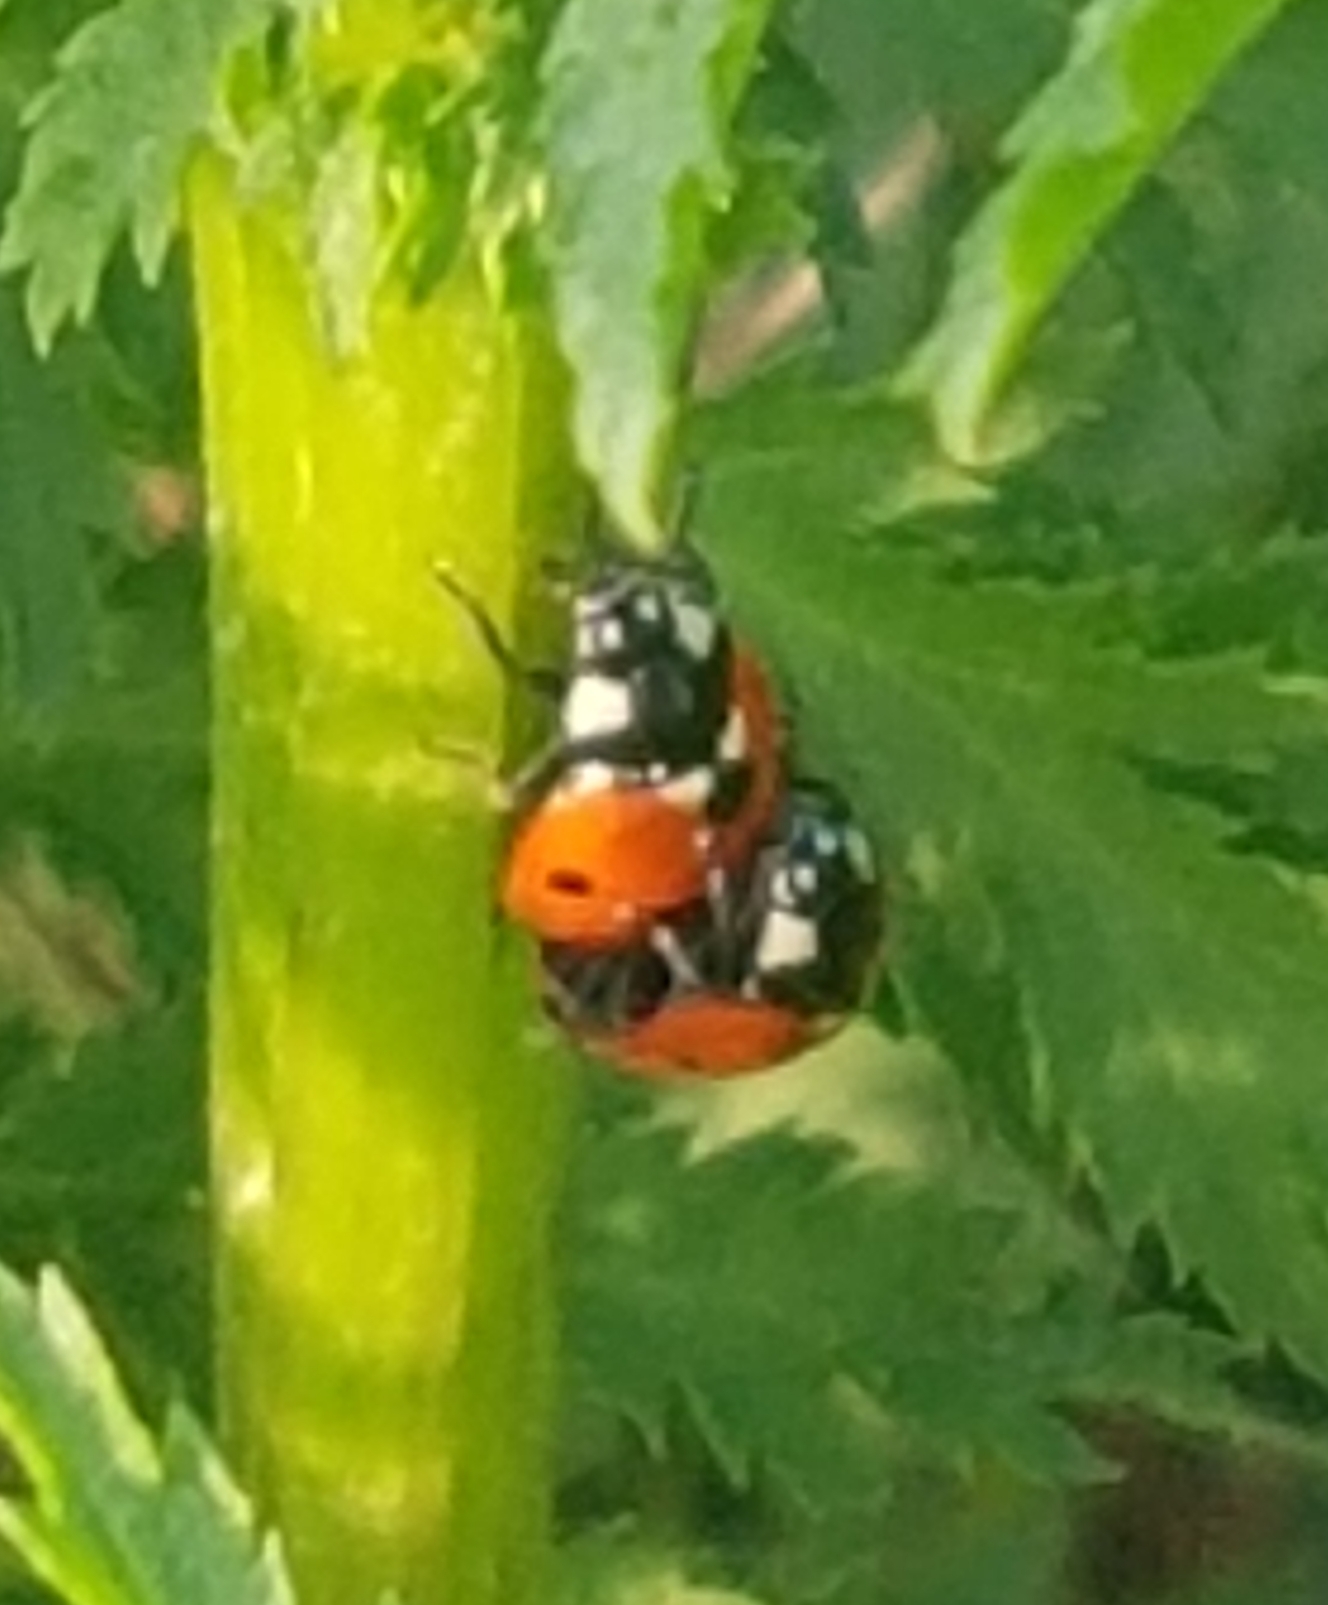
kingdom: Animalia
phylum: Arthropoda
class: Insecta
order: Coleoptera
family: Coccinellidae
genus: Coccinella
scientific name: Coccinella septempunctata
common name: Sevenspotted lady beetle
